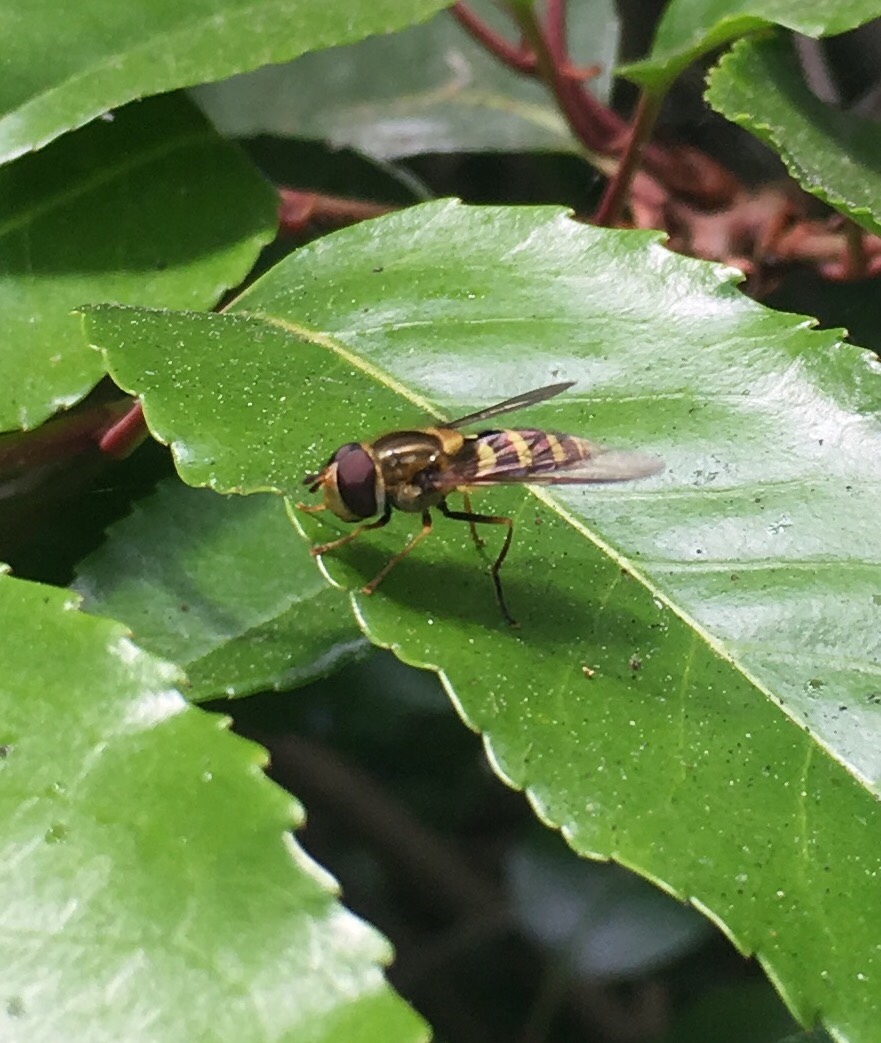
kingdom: Animalia
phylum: Arthropoda
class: Insecta
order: Diptera
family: Syrphidae
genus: Syrphus
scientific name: Syrphus opinator
